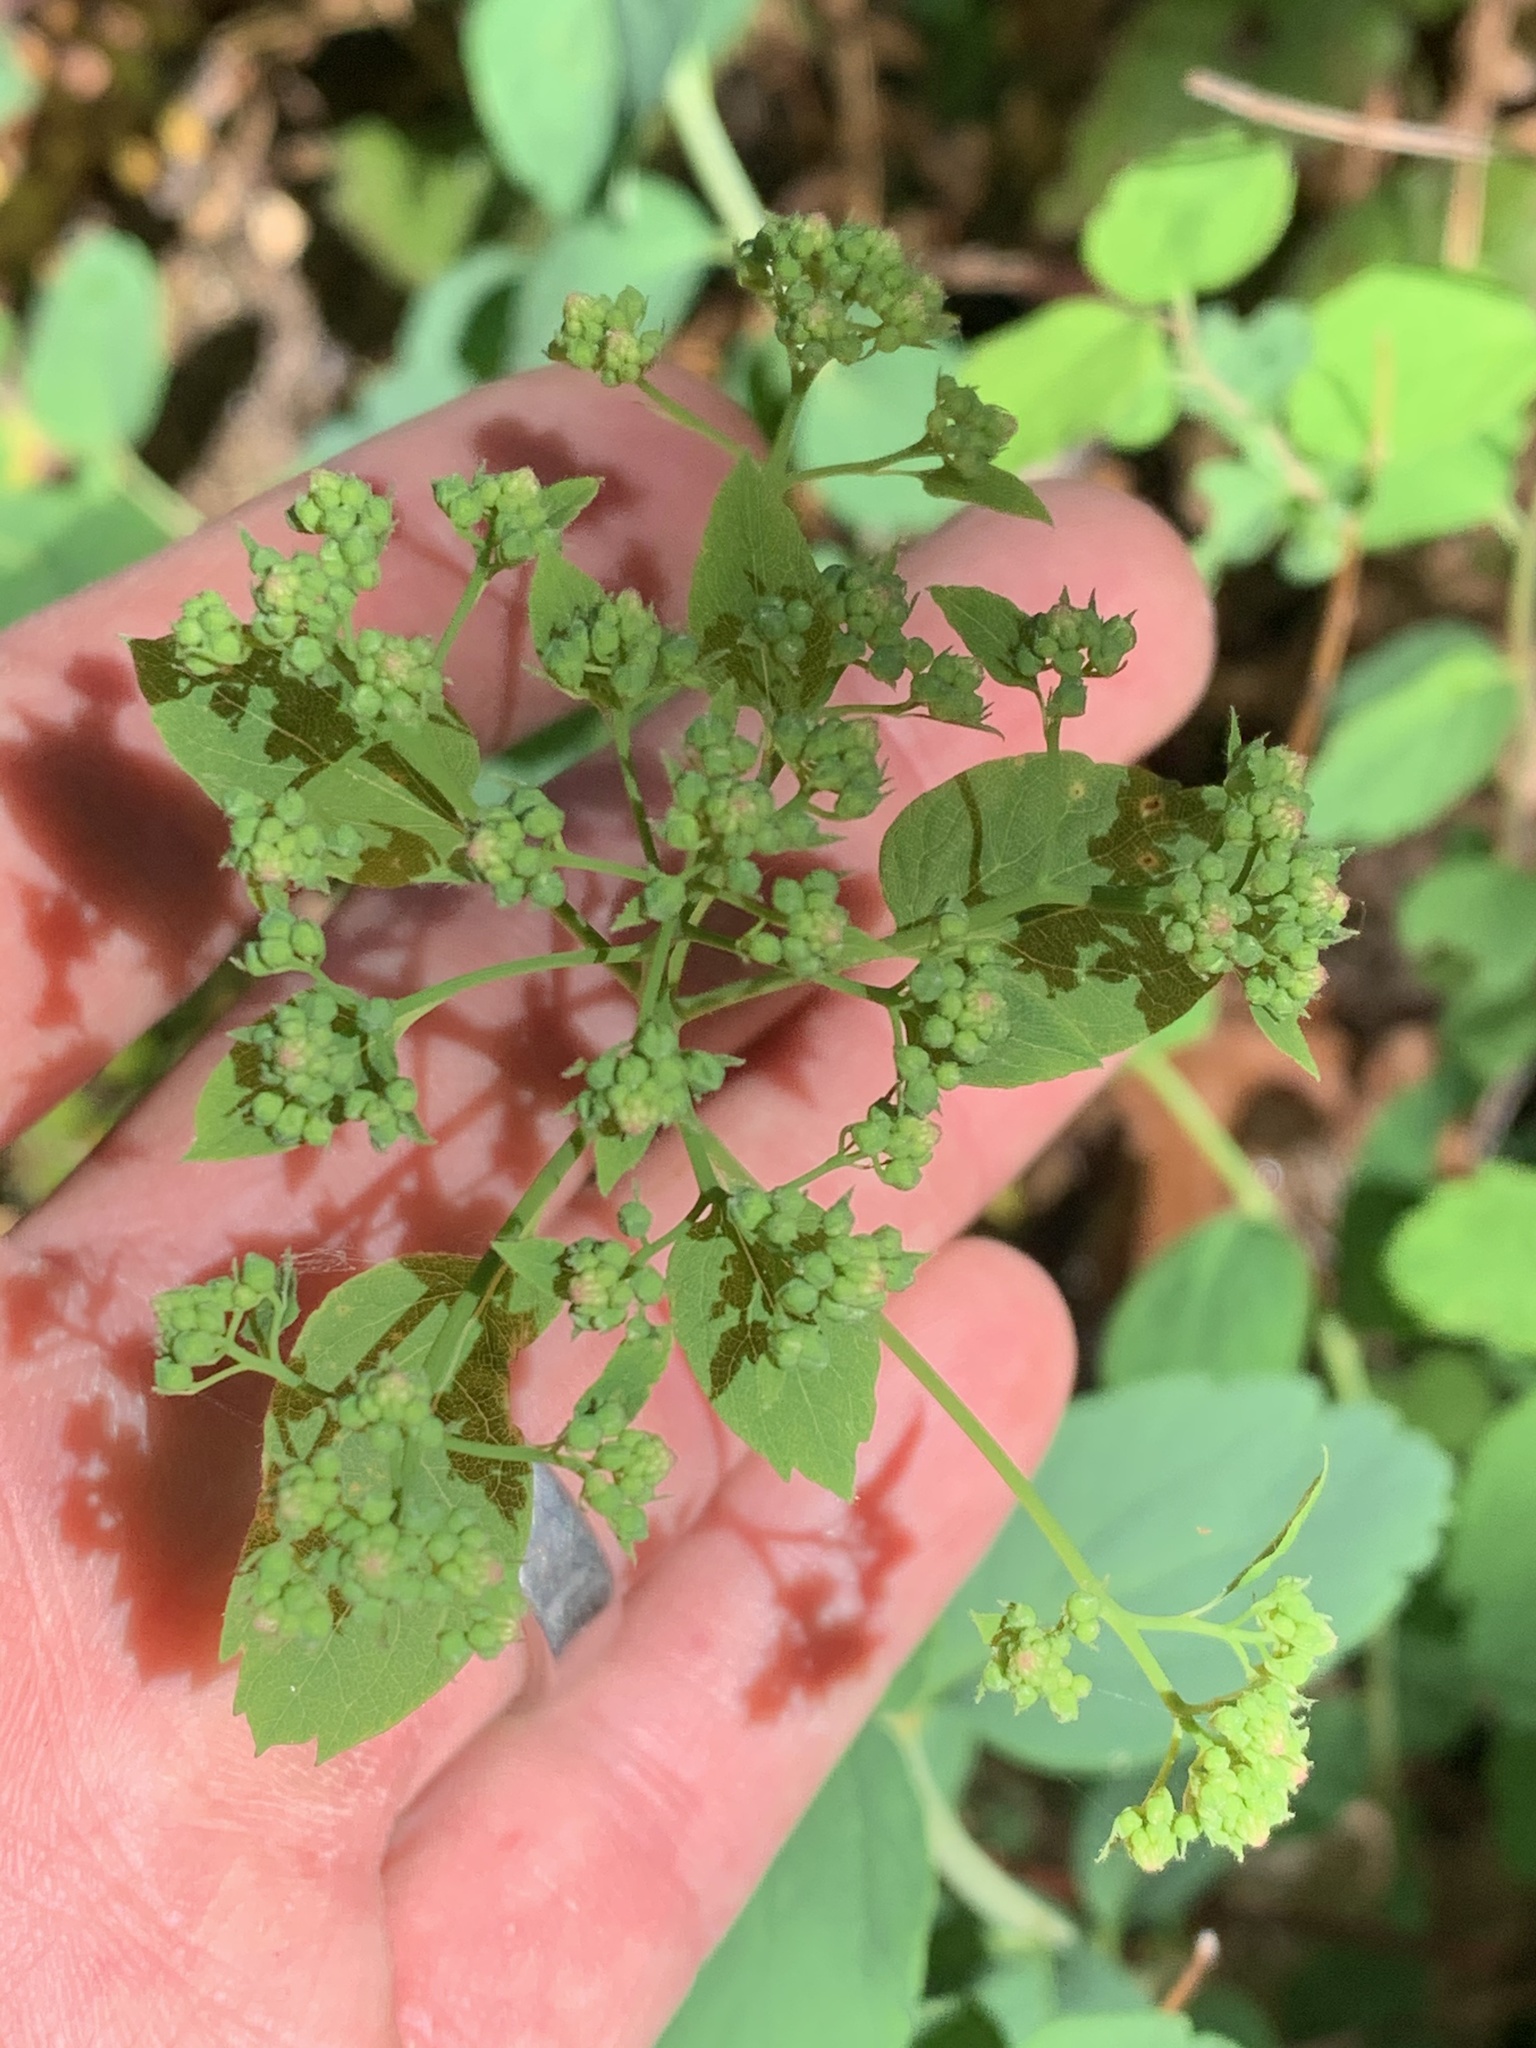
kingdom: Plantae
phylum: Tracheophyta
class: Magnoliopsida
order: Rosales
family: Rosaceae
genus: Spiraea
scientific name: Spiraea lucida
